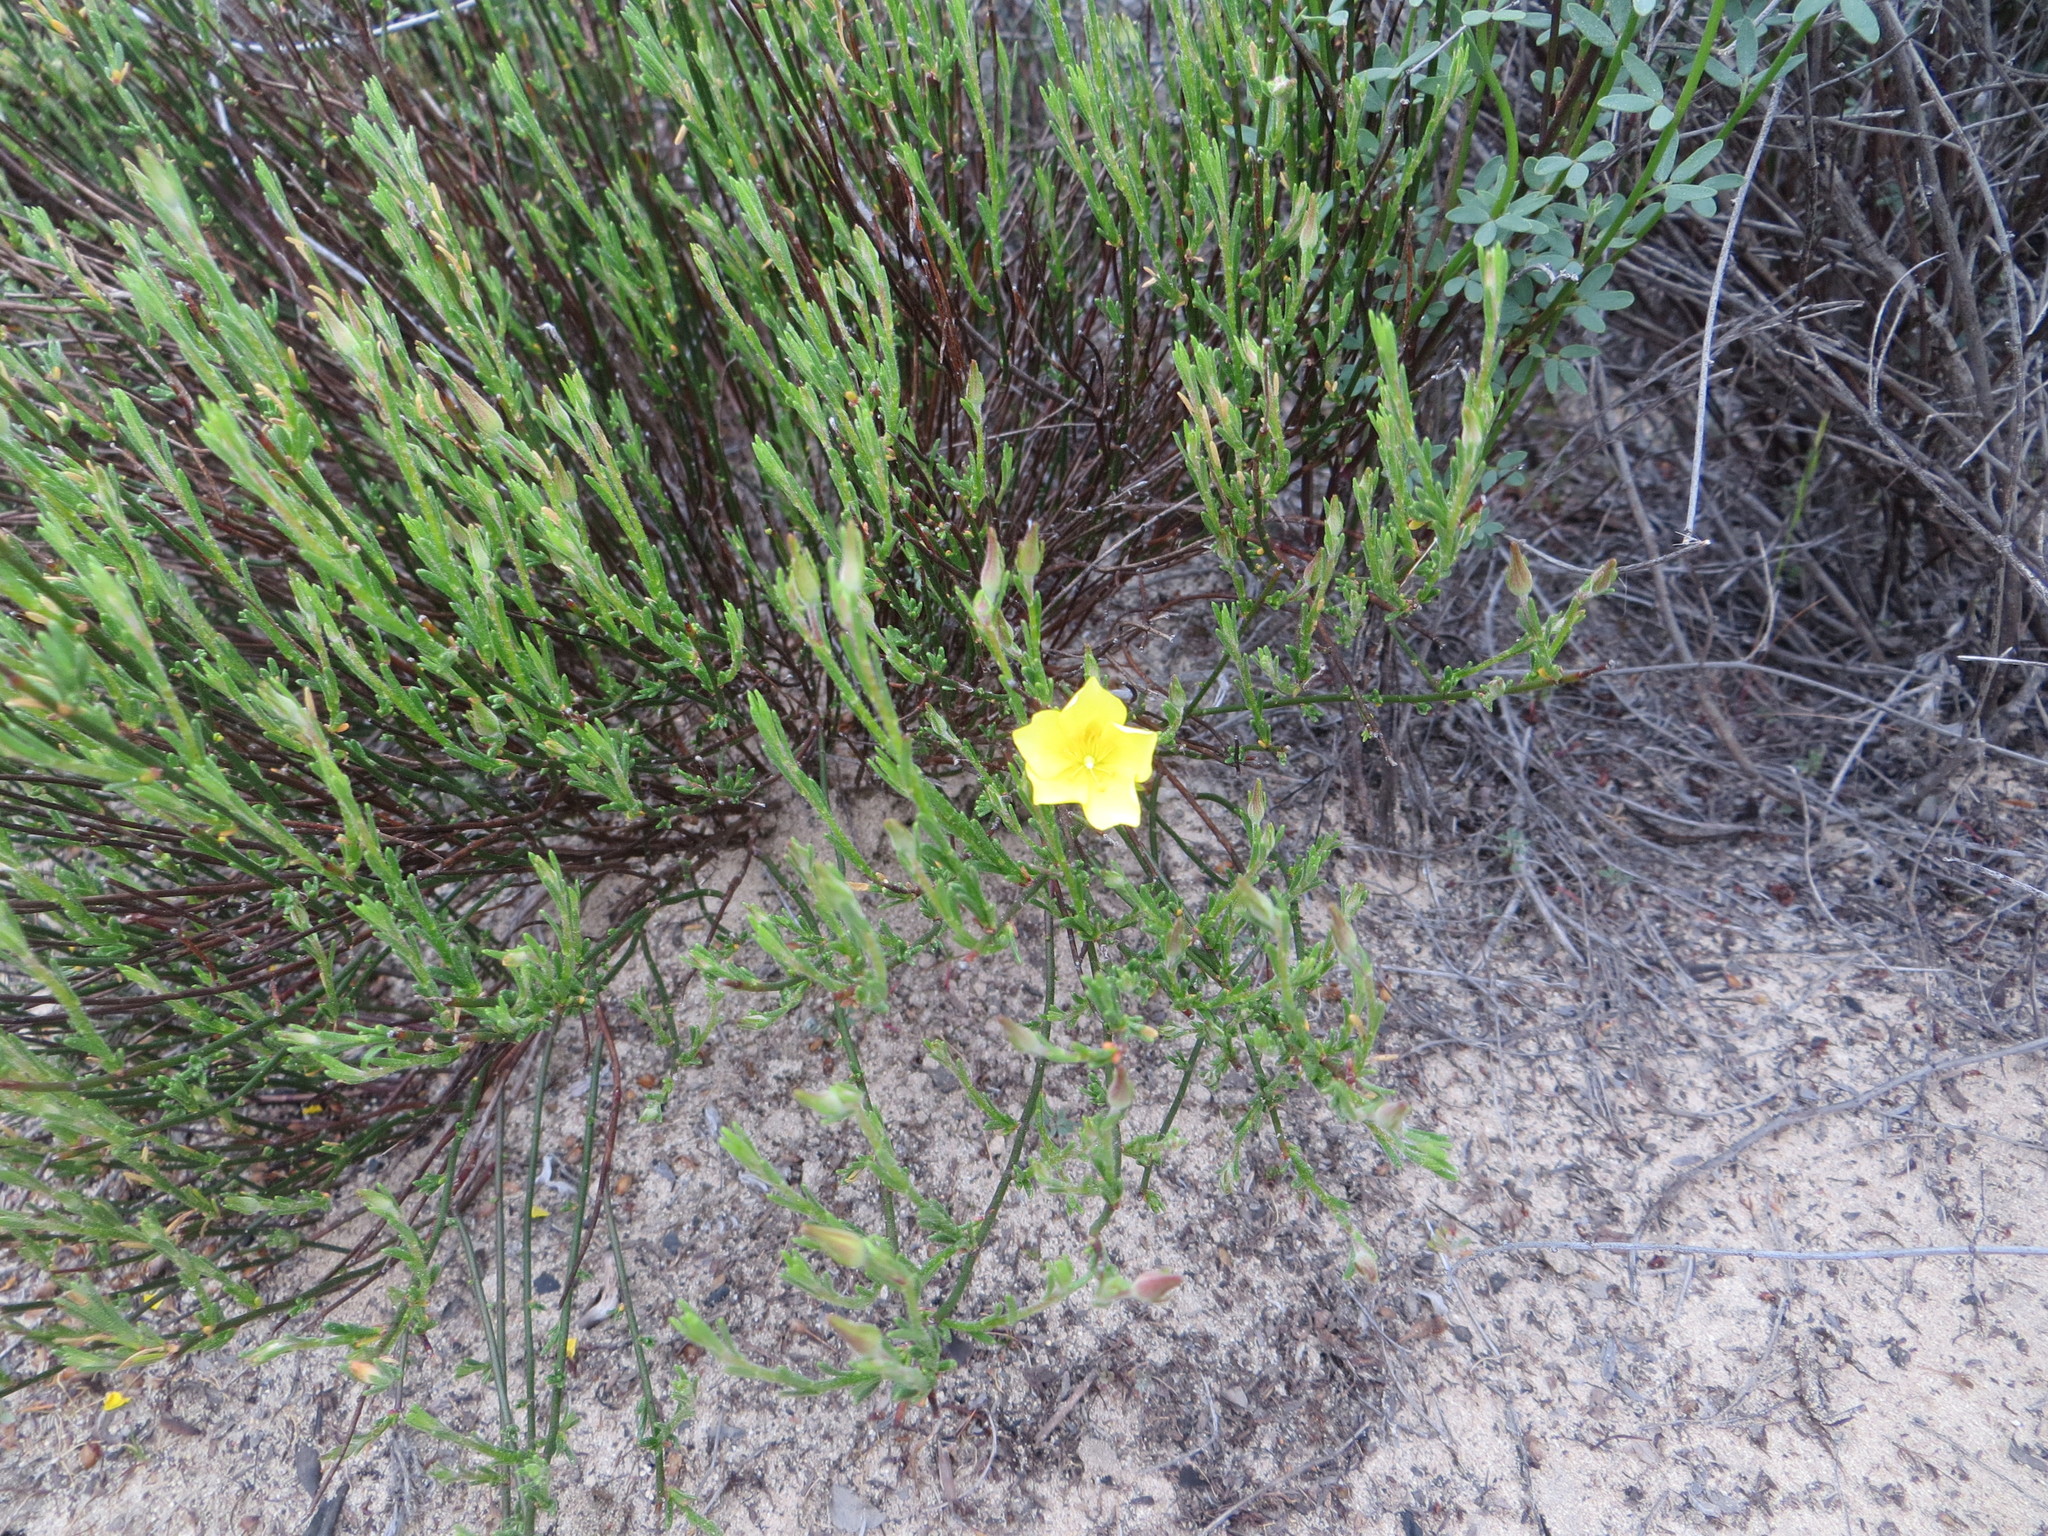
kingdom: Plantae
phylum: Tracheophyta
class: Magnoliopsida
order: Malvales
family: Cistaceae
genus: Crocanthemum
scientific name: Crocanthemum scoparium
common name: Broom-rose
